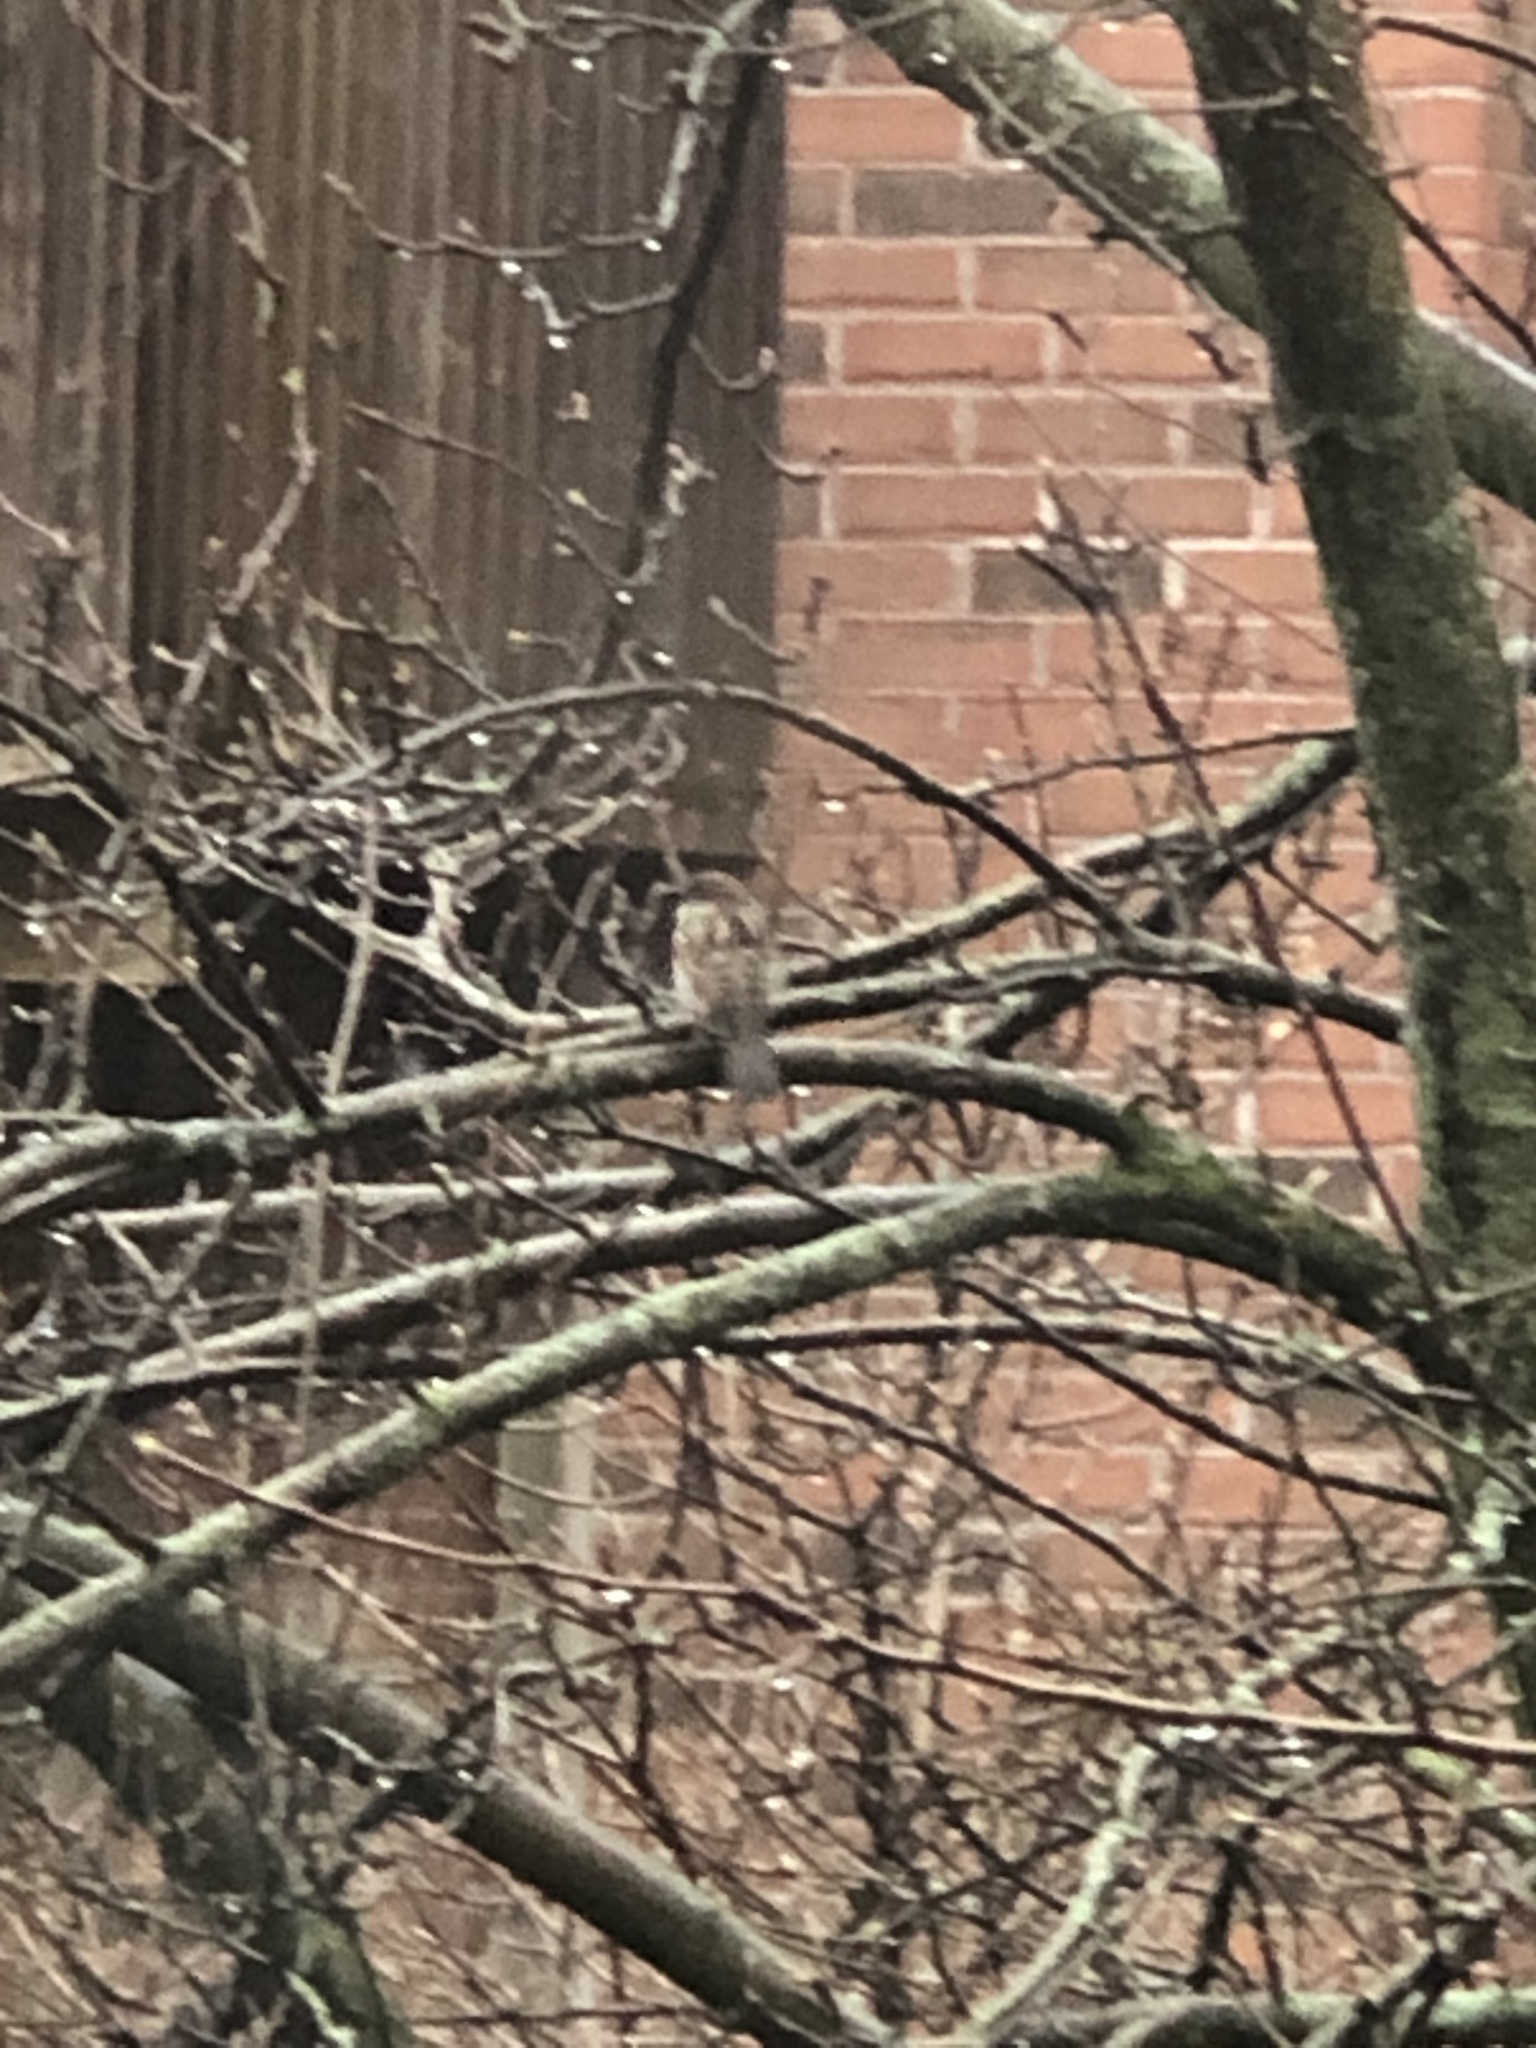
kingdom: Animalia
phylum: Chordata
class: Aves
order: Passeriformes
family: Passeridae
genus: Passer
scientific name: Passer domesticus
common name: House sparrow
